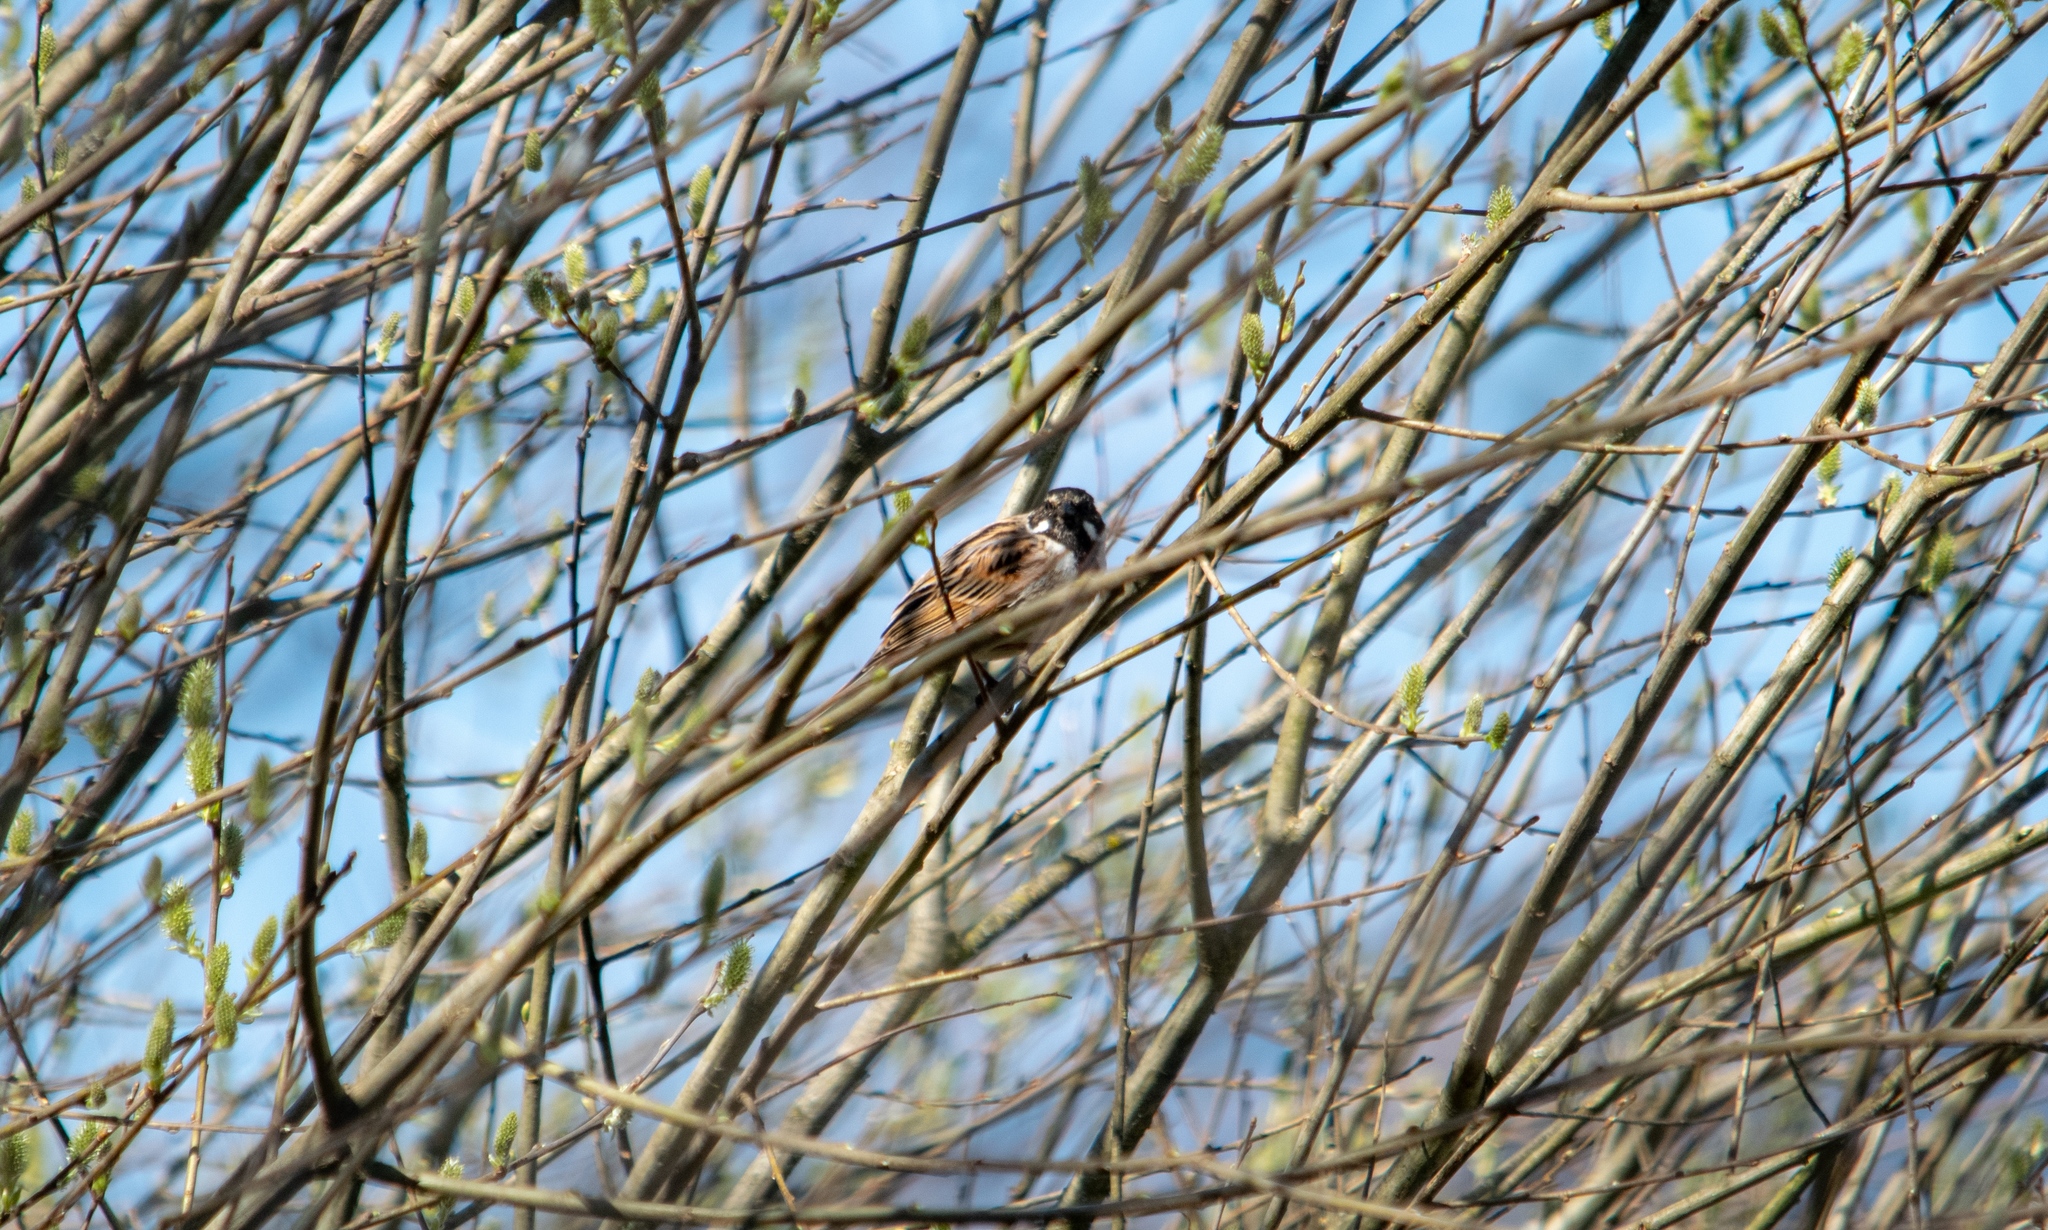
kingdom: Animalia
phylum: Chordata
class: Aves
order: Passeriformes
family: Emberizidae
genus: Emberiza
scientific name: Emberiza schoeniclus
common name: Reed bunting
